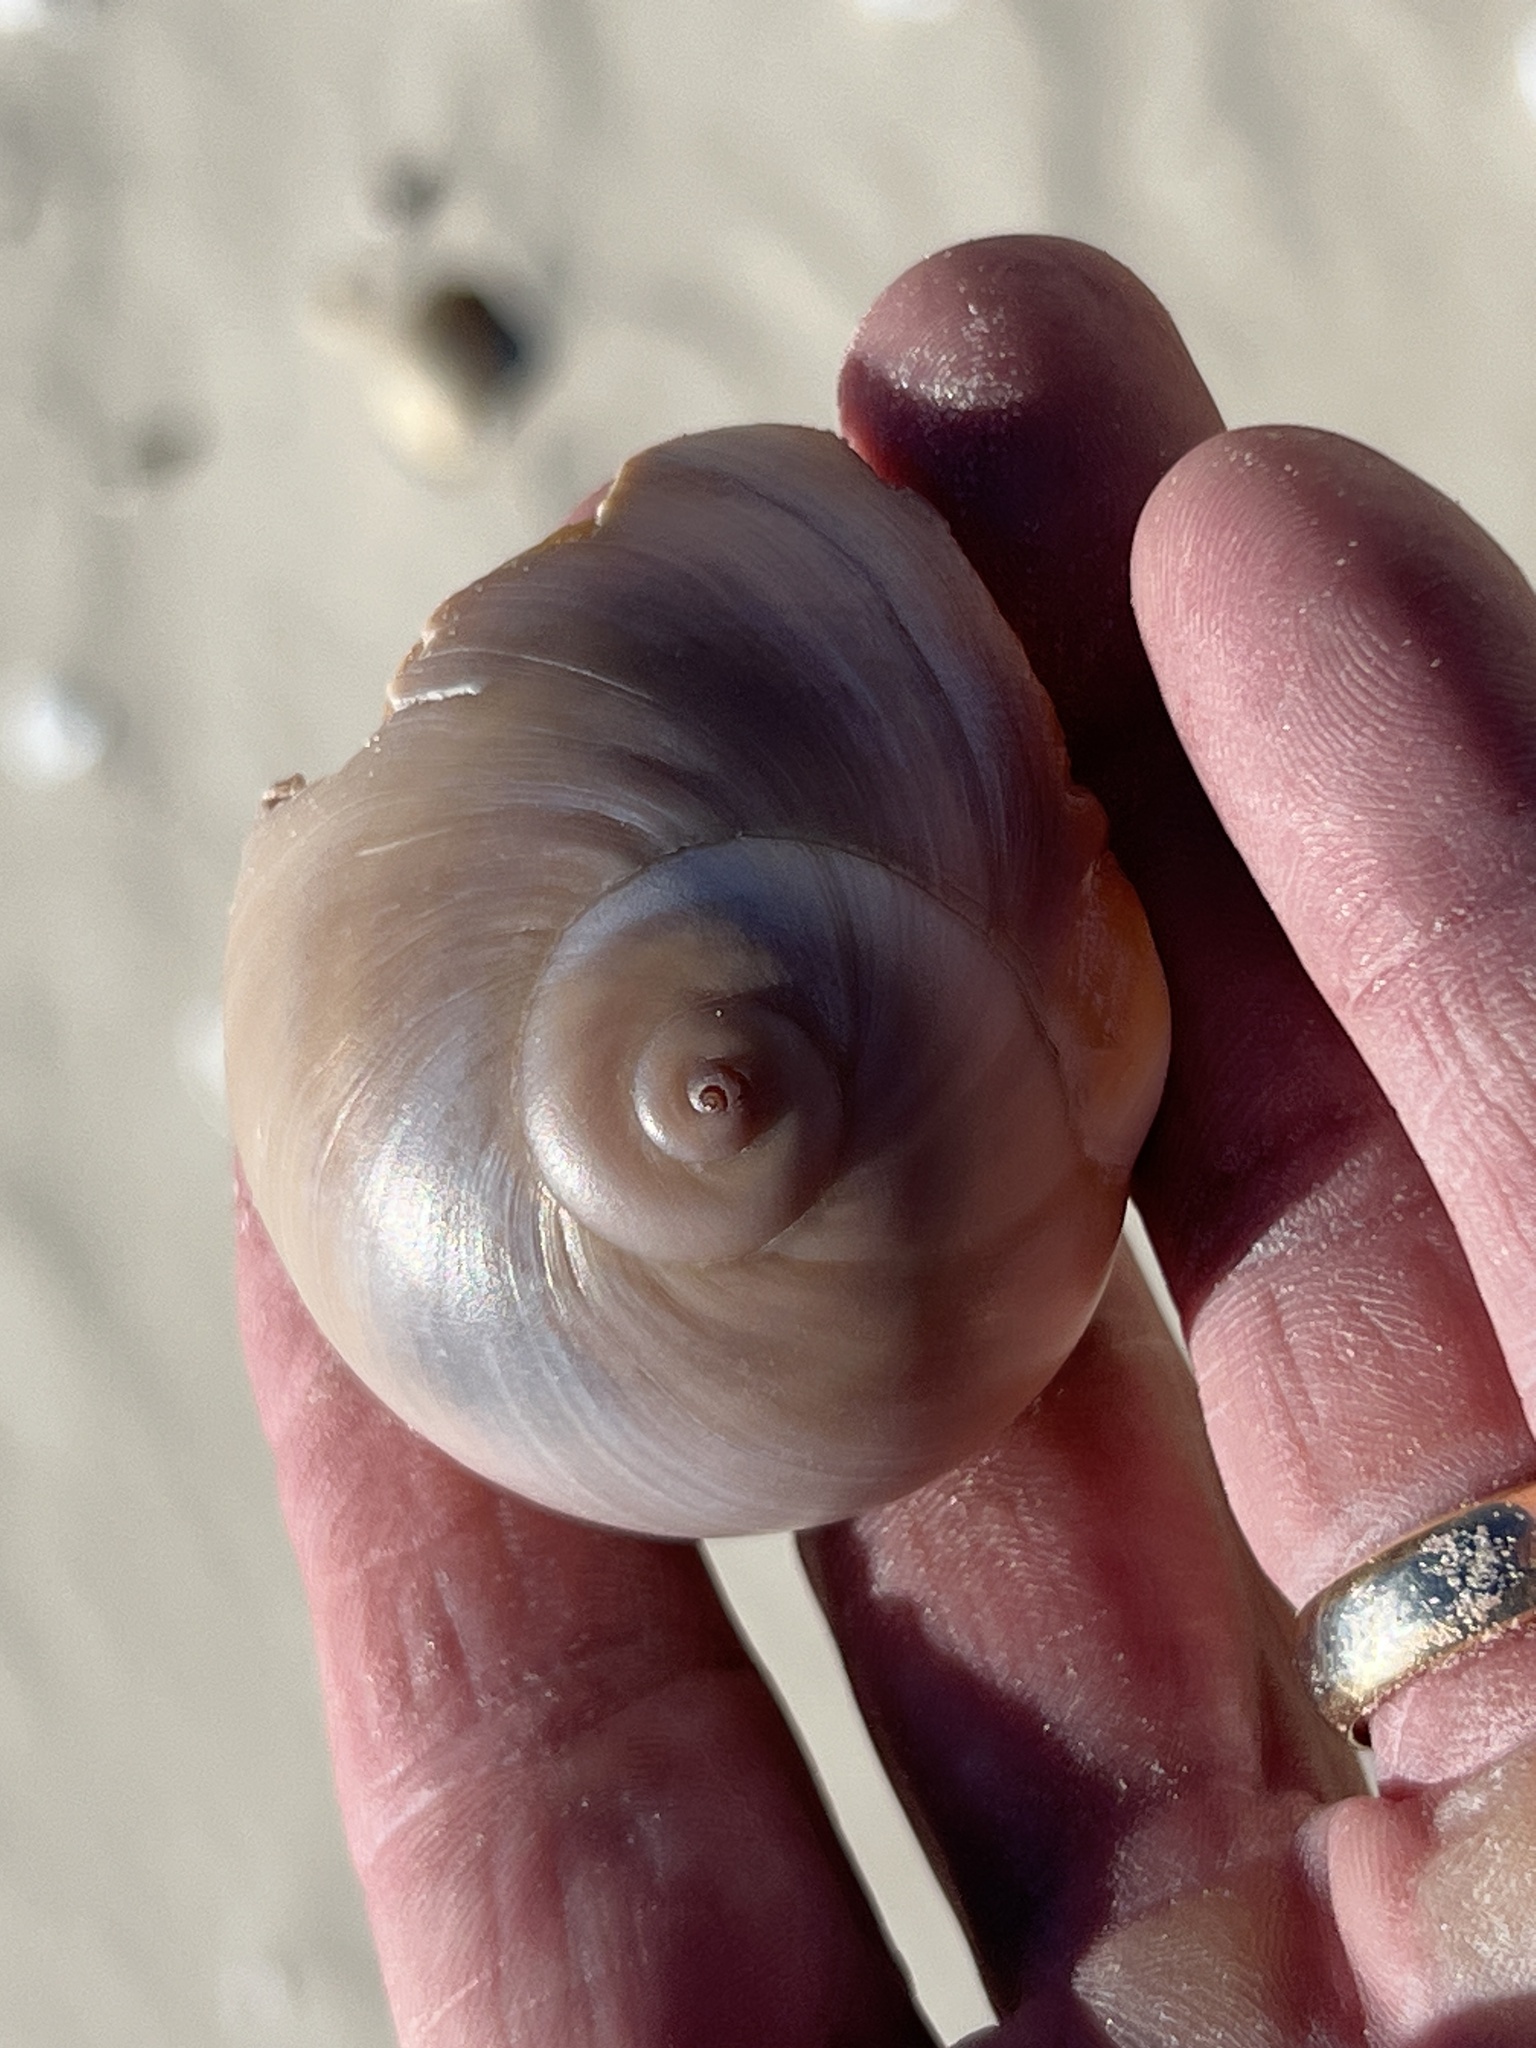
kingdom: Animalia
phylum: Mollusca
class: Gastropoda
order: Littorinimorpha
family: Naticidae
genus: Neverita
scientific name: Neverita duplicata
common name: Lobed moonsnail
